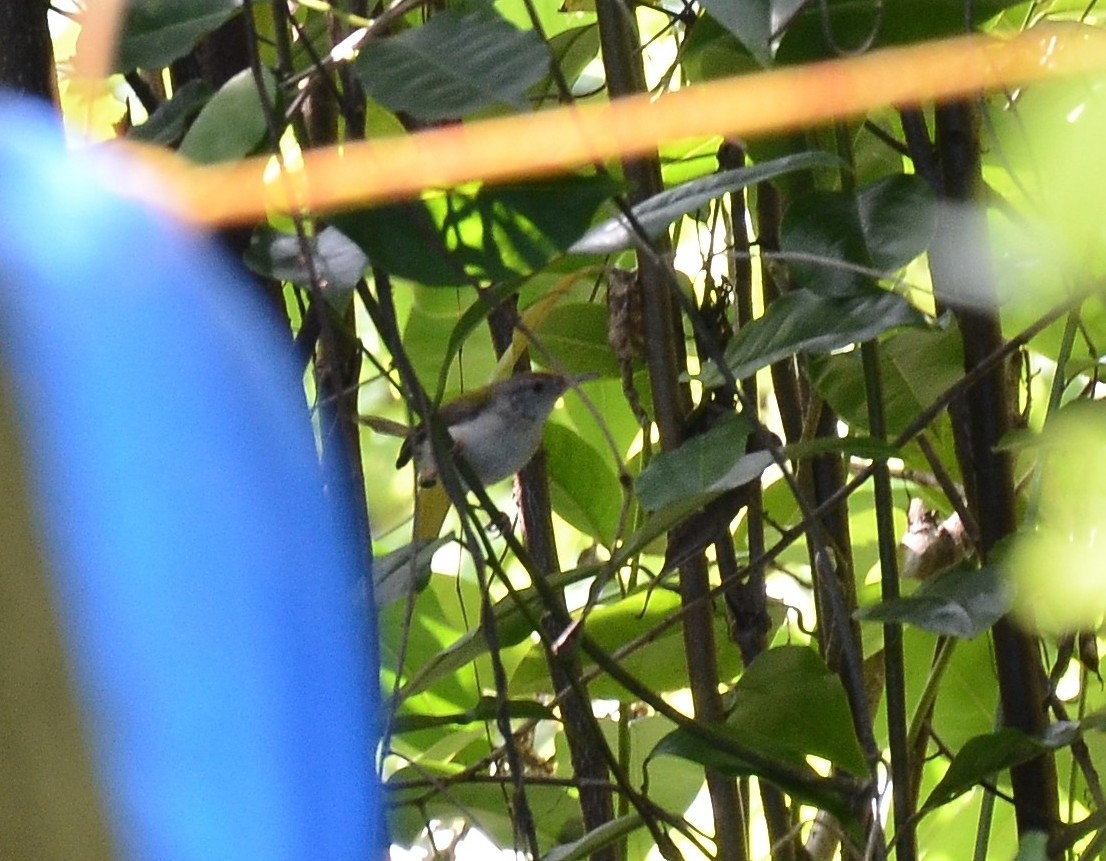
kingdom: Animalia
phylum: Chordata
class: Aves
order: Passeriformes
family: Cisticolidae
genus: Orthotomus
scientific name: Orthotomus sutorius
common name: Common tailorbird
